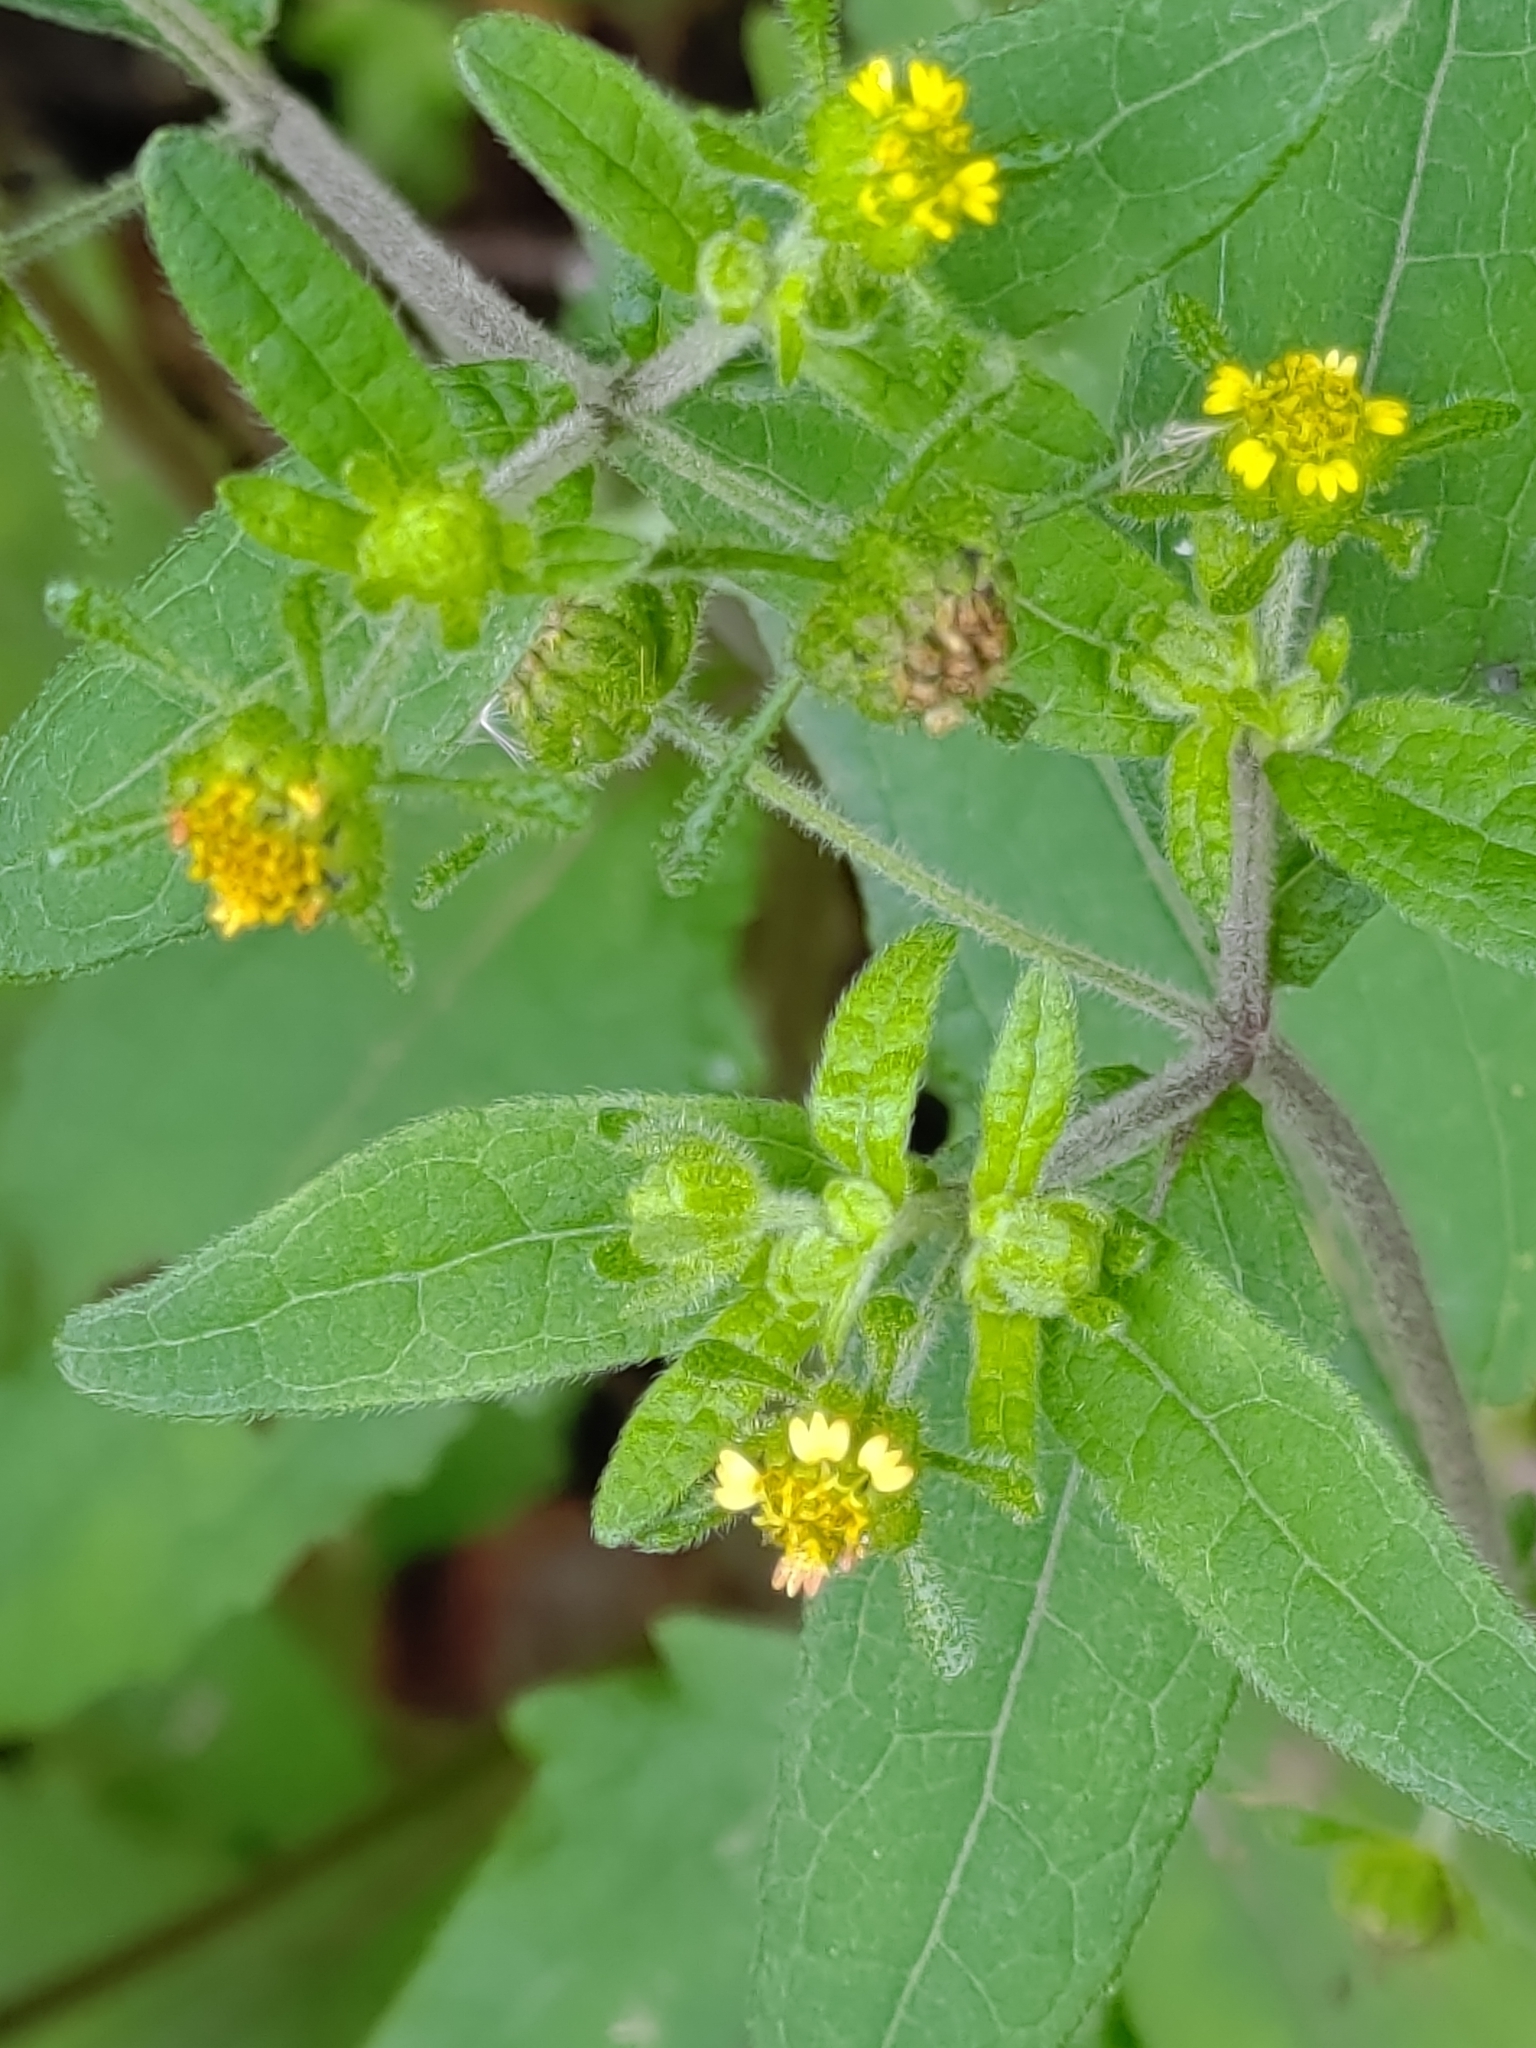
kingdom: Plantae
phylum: Tracheophyta
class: Magnoliopsida
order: Asterales
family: Asteraceae
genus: Sigesbeckia
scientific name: Sigesbeckia orientalis
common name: Eastern st paul's-wort
